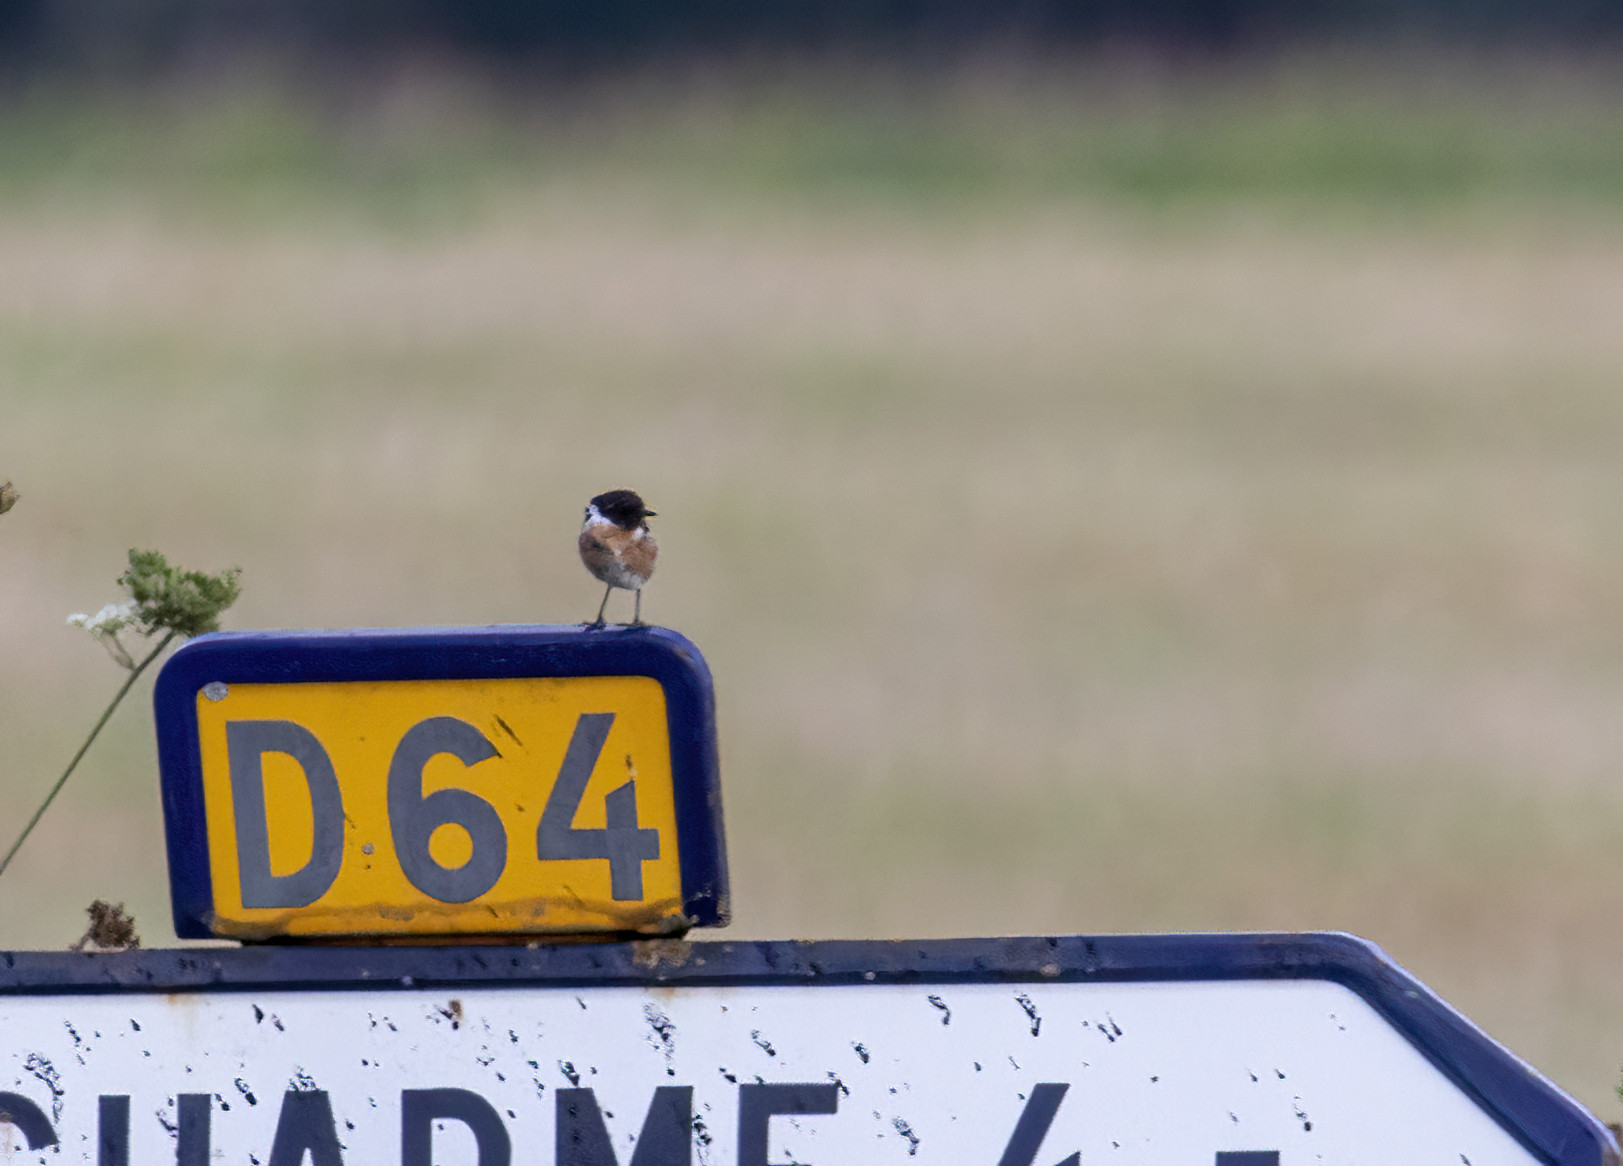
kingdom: Animalia
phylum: Chordata
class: Aves
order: Passeriformes
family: Muscicapidae
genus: Saxicola
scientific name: Saxicola rubicola
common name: European stonechat
